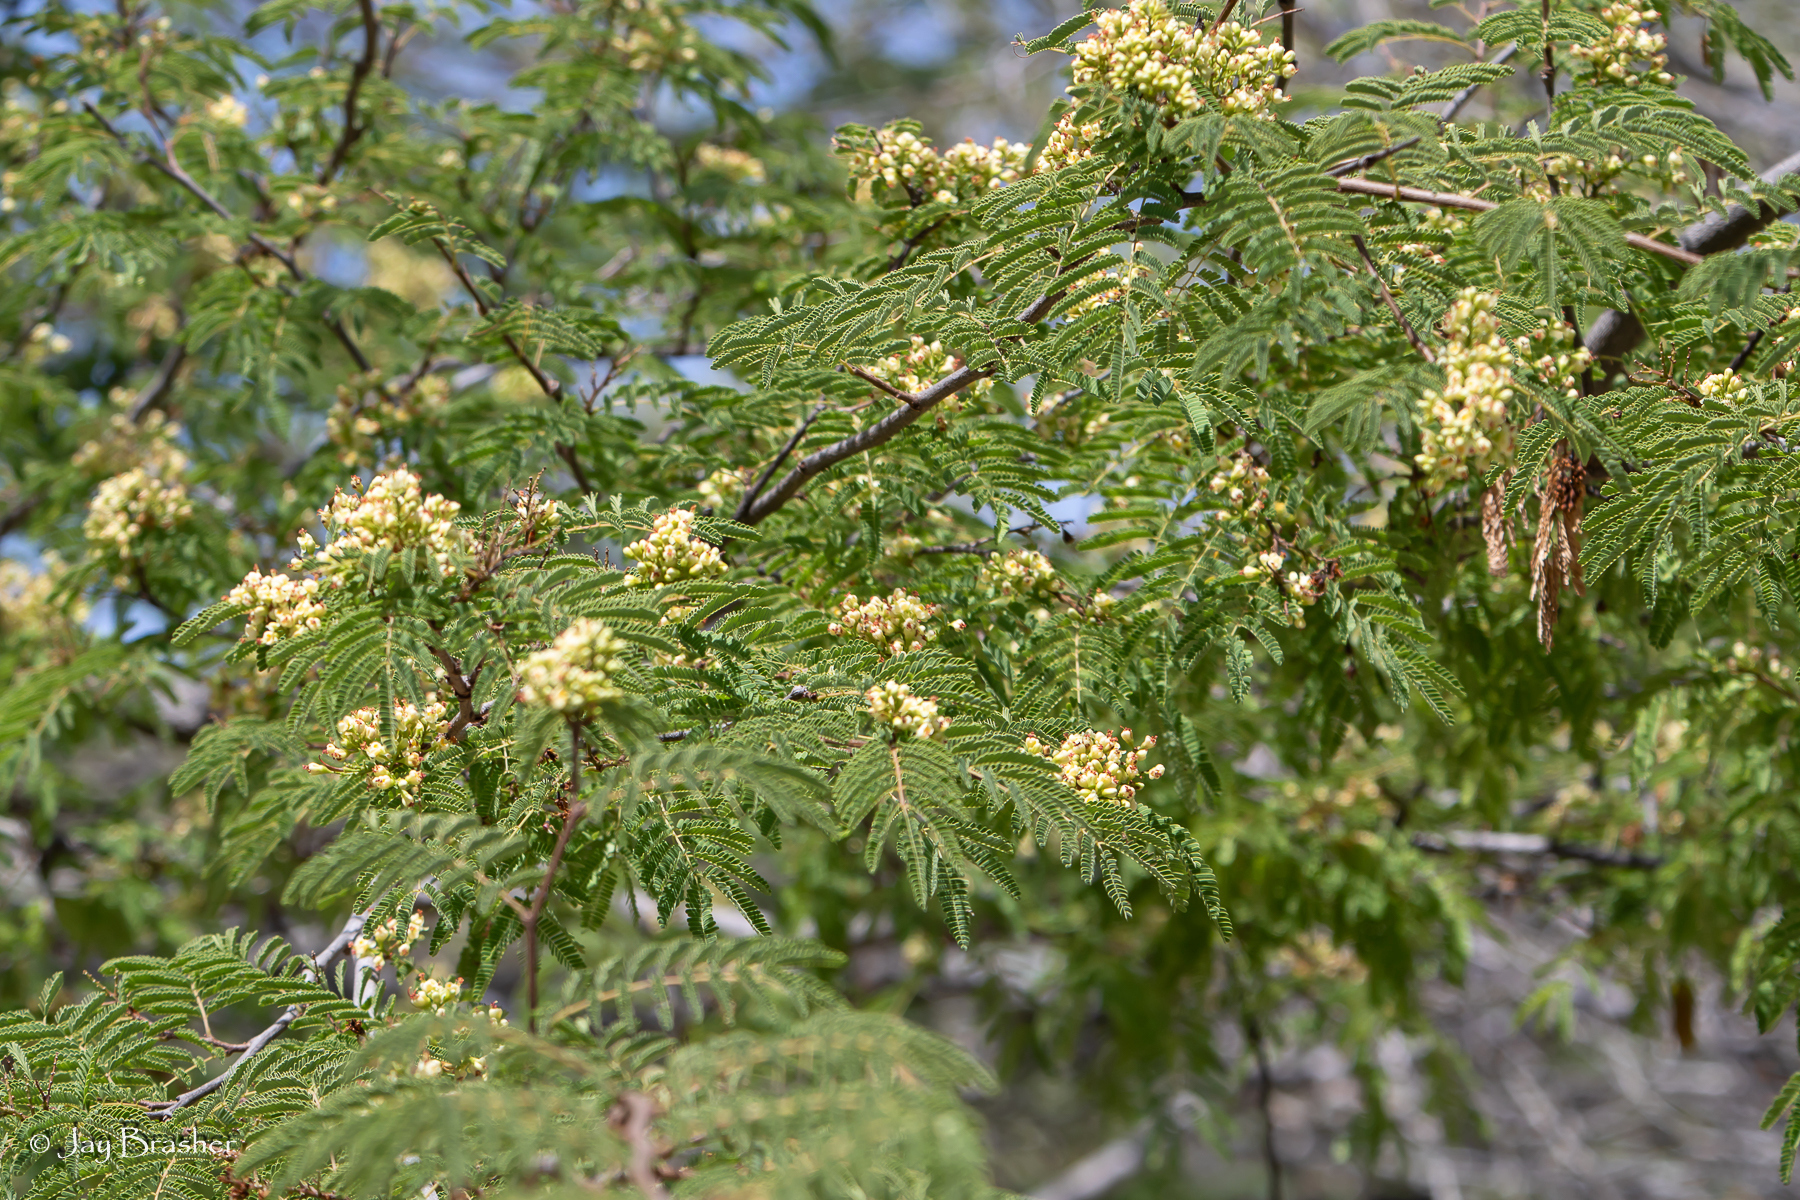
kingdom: Plantae
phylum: Tracheophyta
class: Magnoliopsida
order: Fabales
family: Fabaceae
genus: Libidibia
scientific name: Libidibia coriaria
